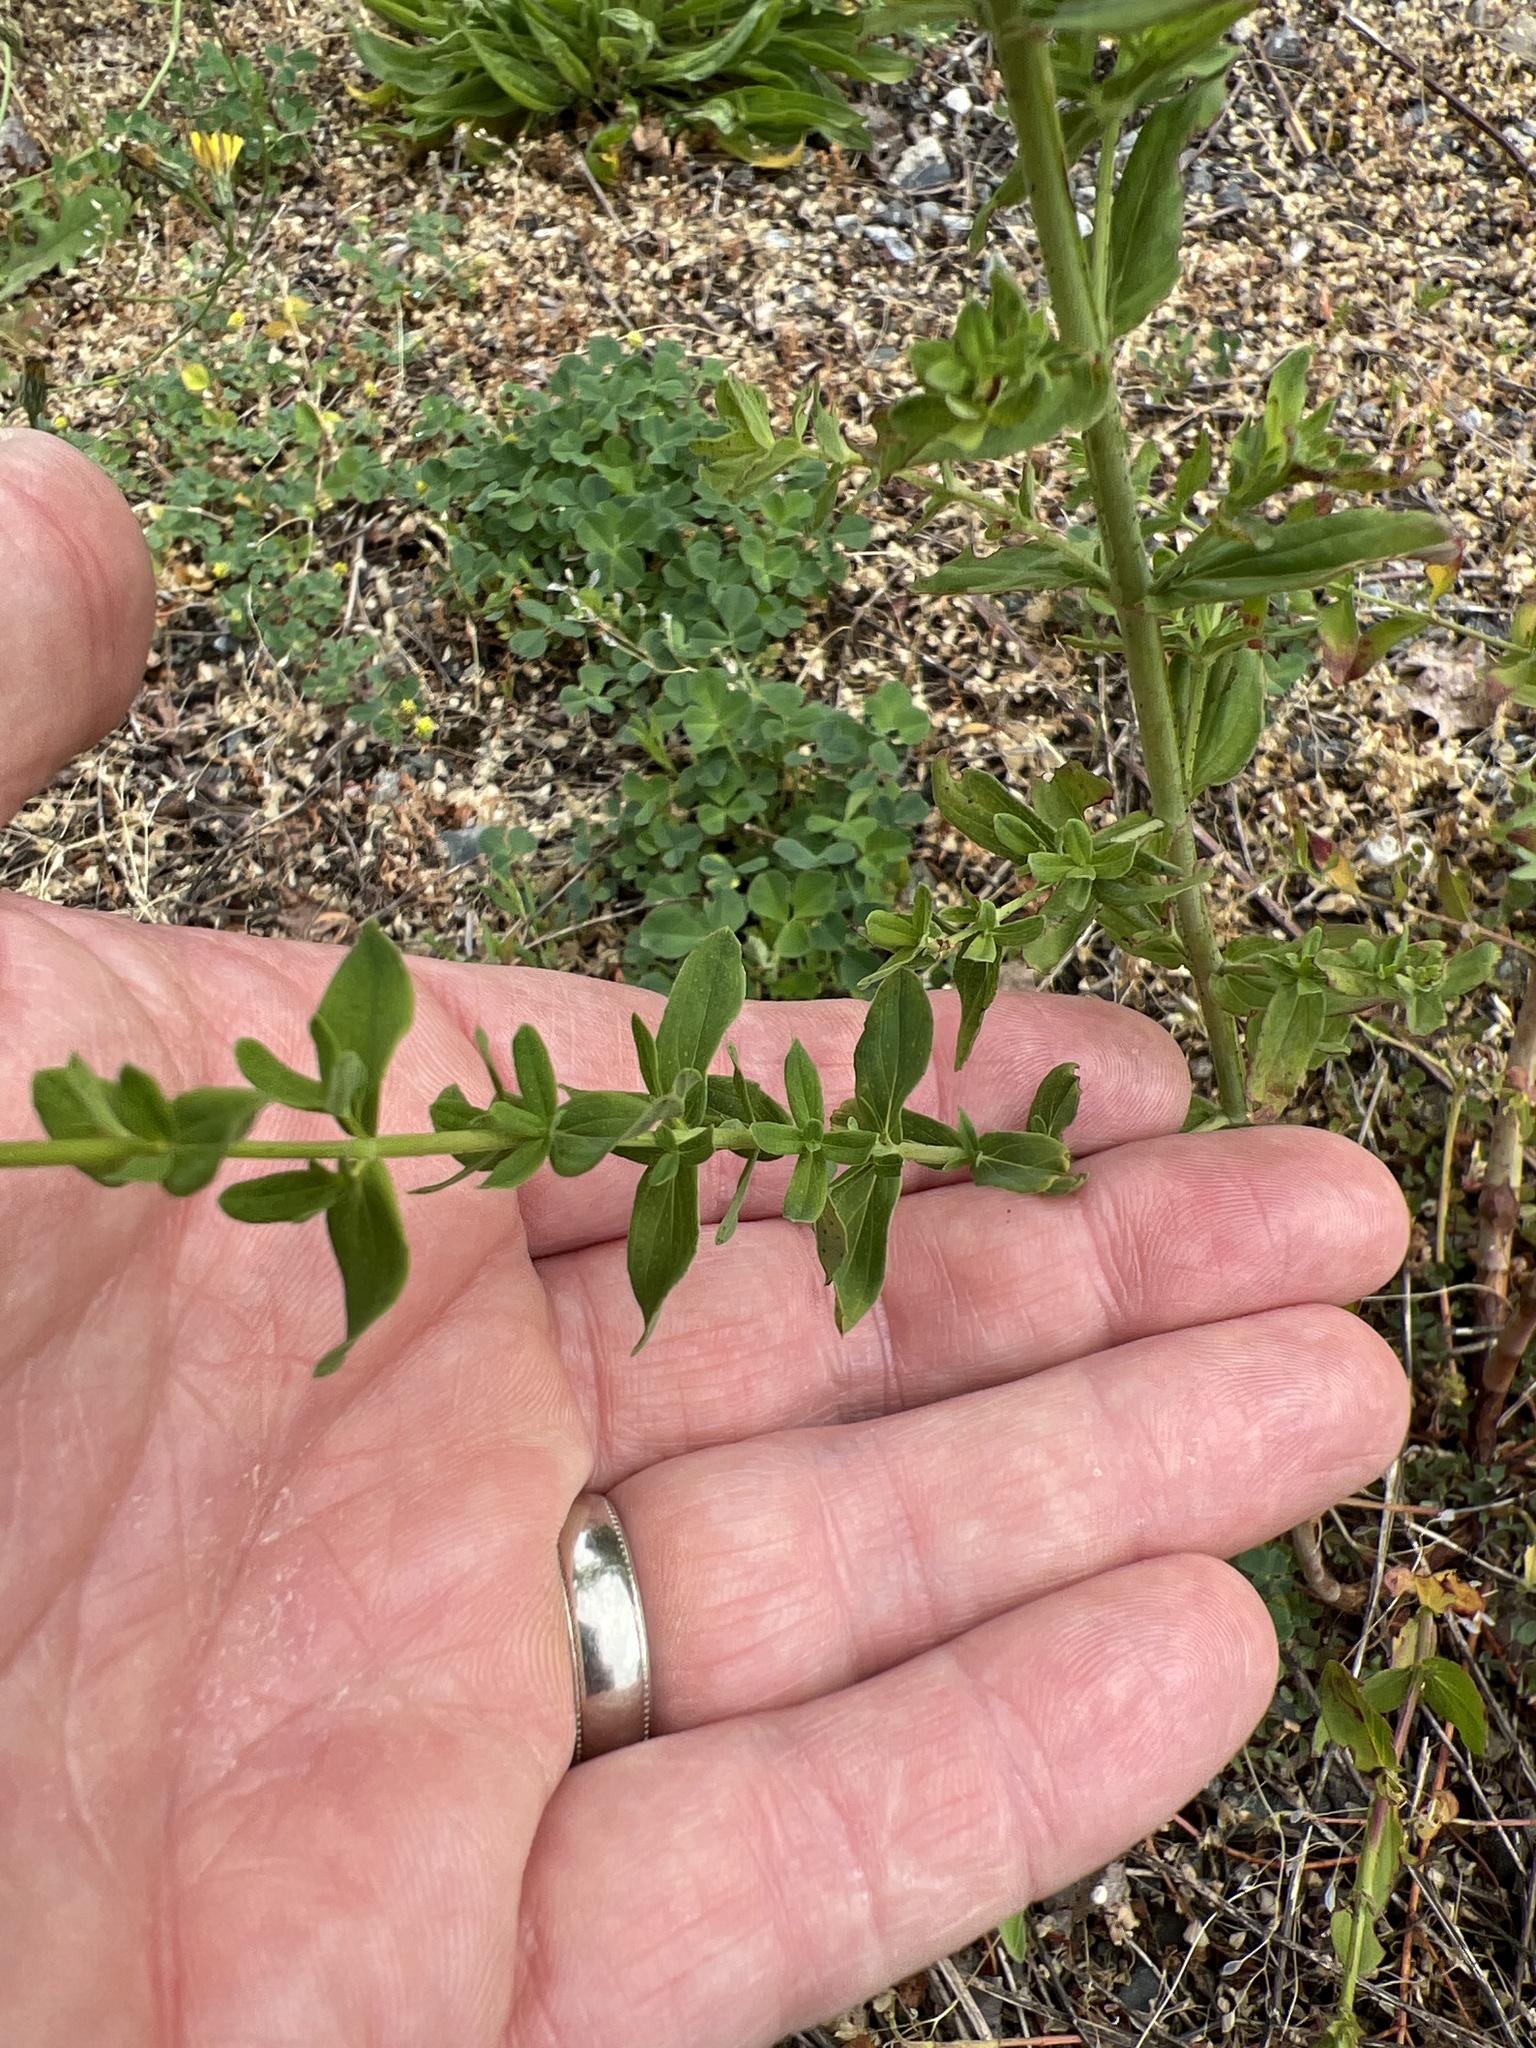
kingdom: Plantae
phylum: Tracheophyta
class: Magnoliopsida
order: Malpighiales
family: Hypericaceae
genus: Hypericum
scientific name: Hypericum perforatum
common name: Common st. johnswort
